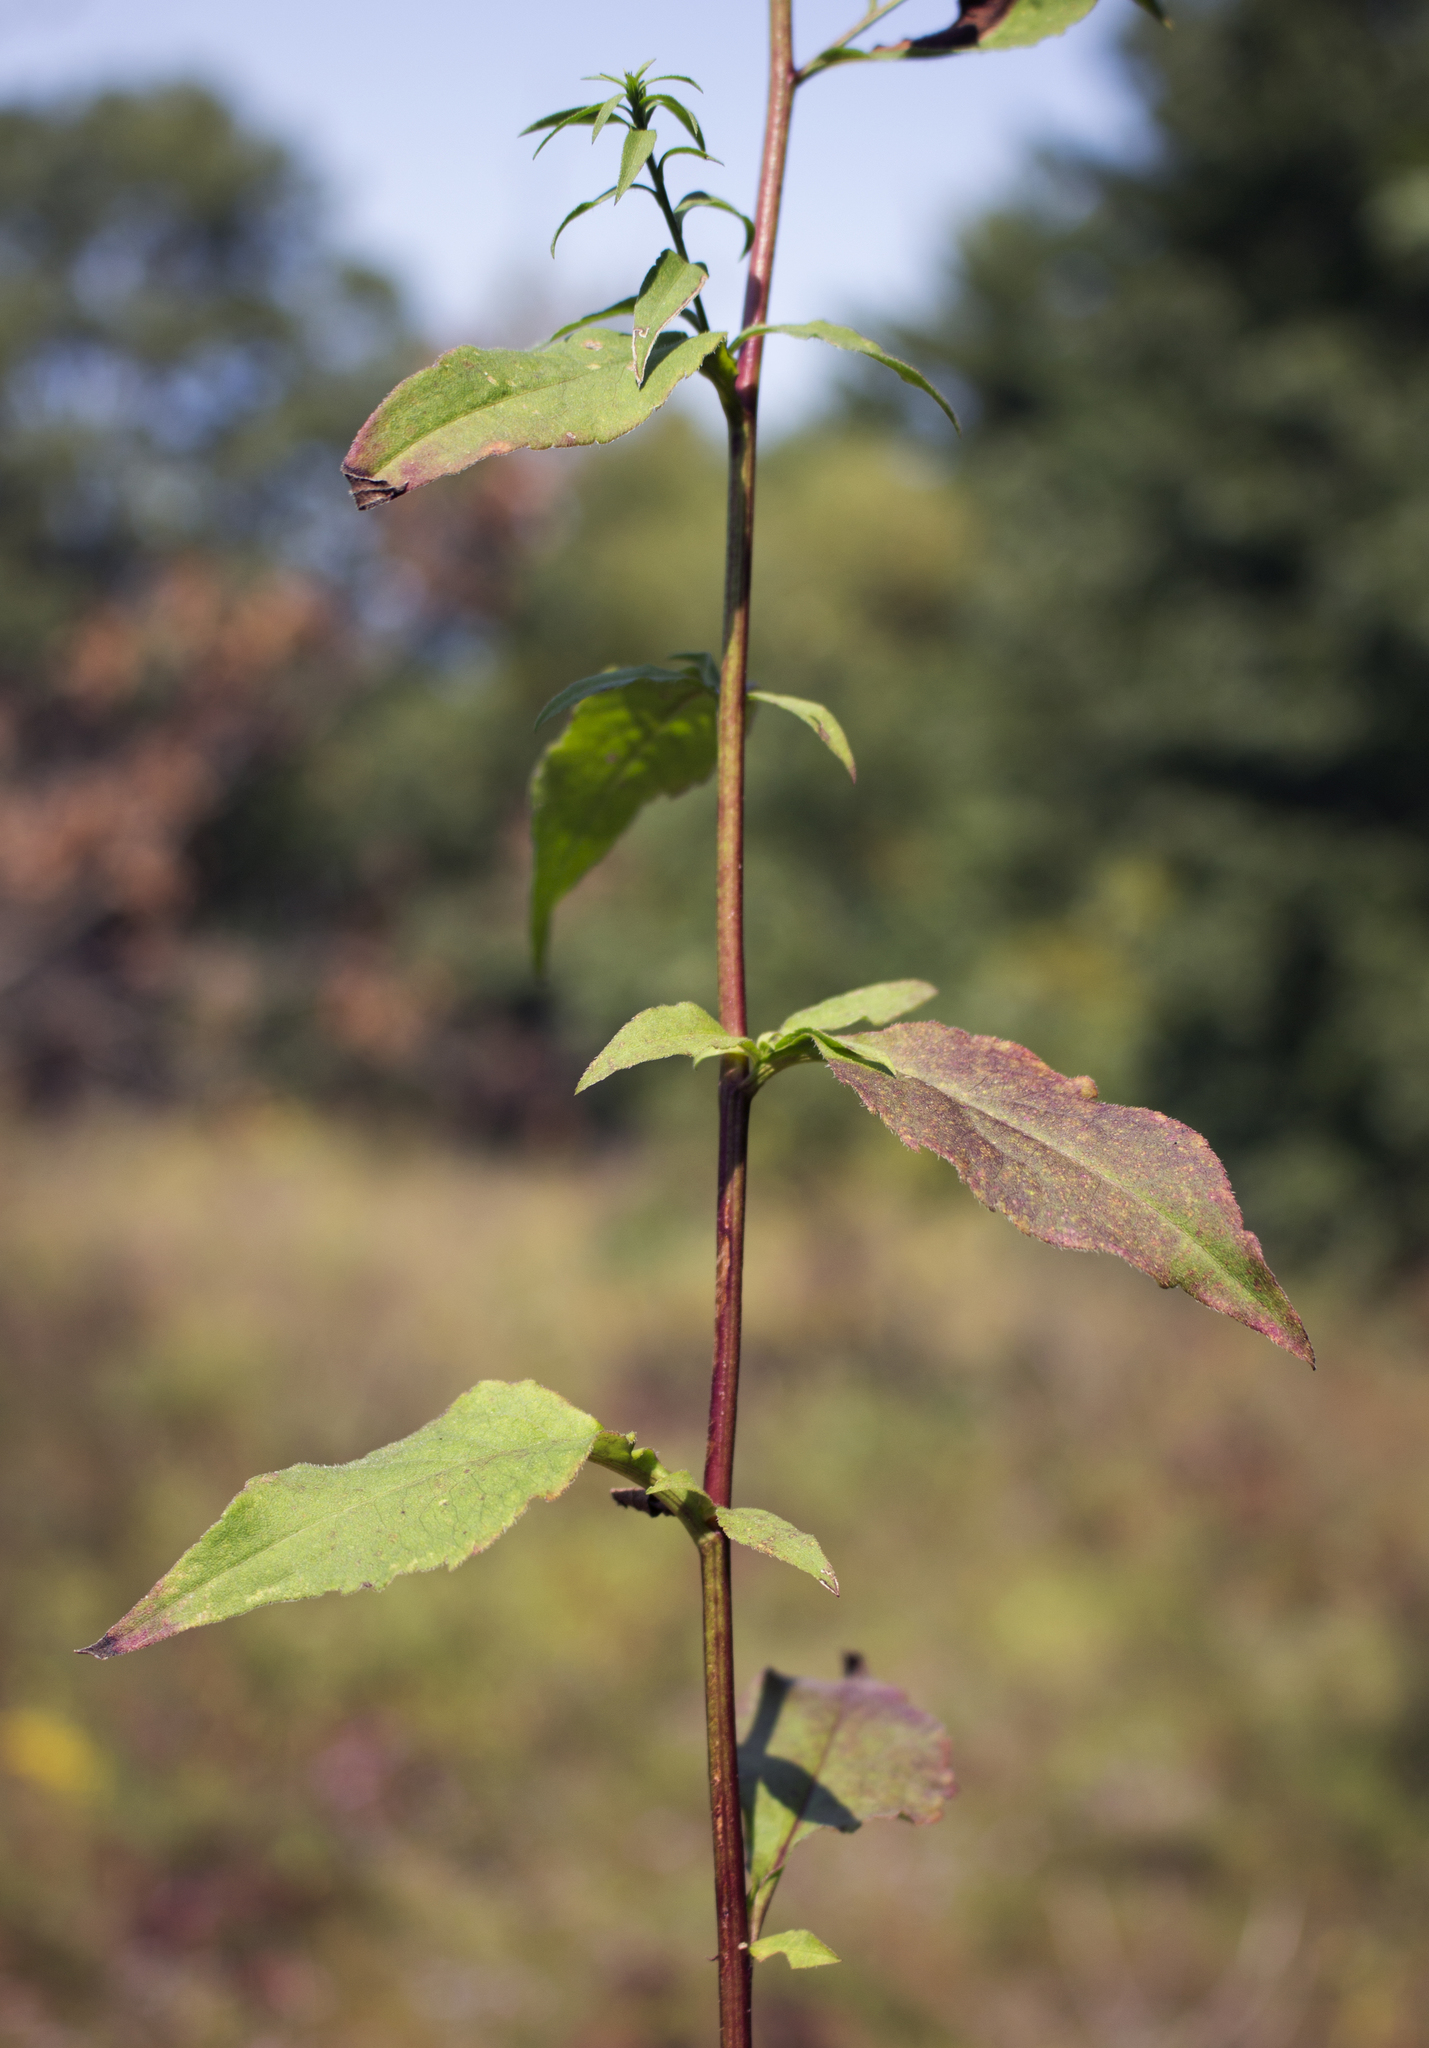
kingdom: Plantae
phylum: Tracheophyta
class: Magnoliopsida
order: Asterales
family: Asteraceae
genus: Symphyotrichum
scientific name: Symphyotrichum urophyllum
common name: Arrow-leaved aster
